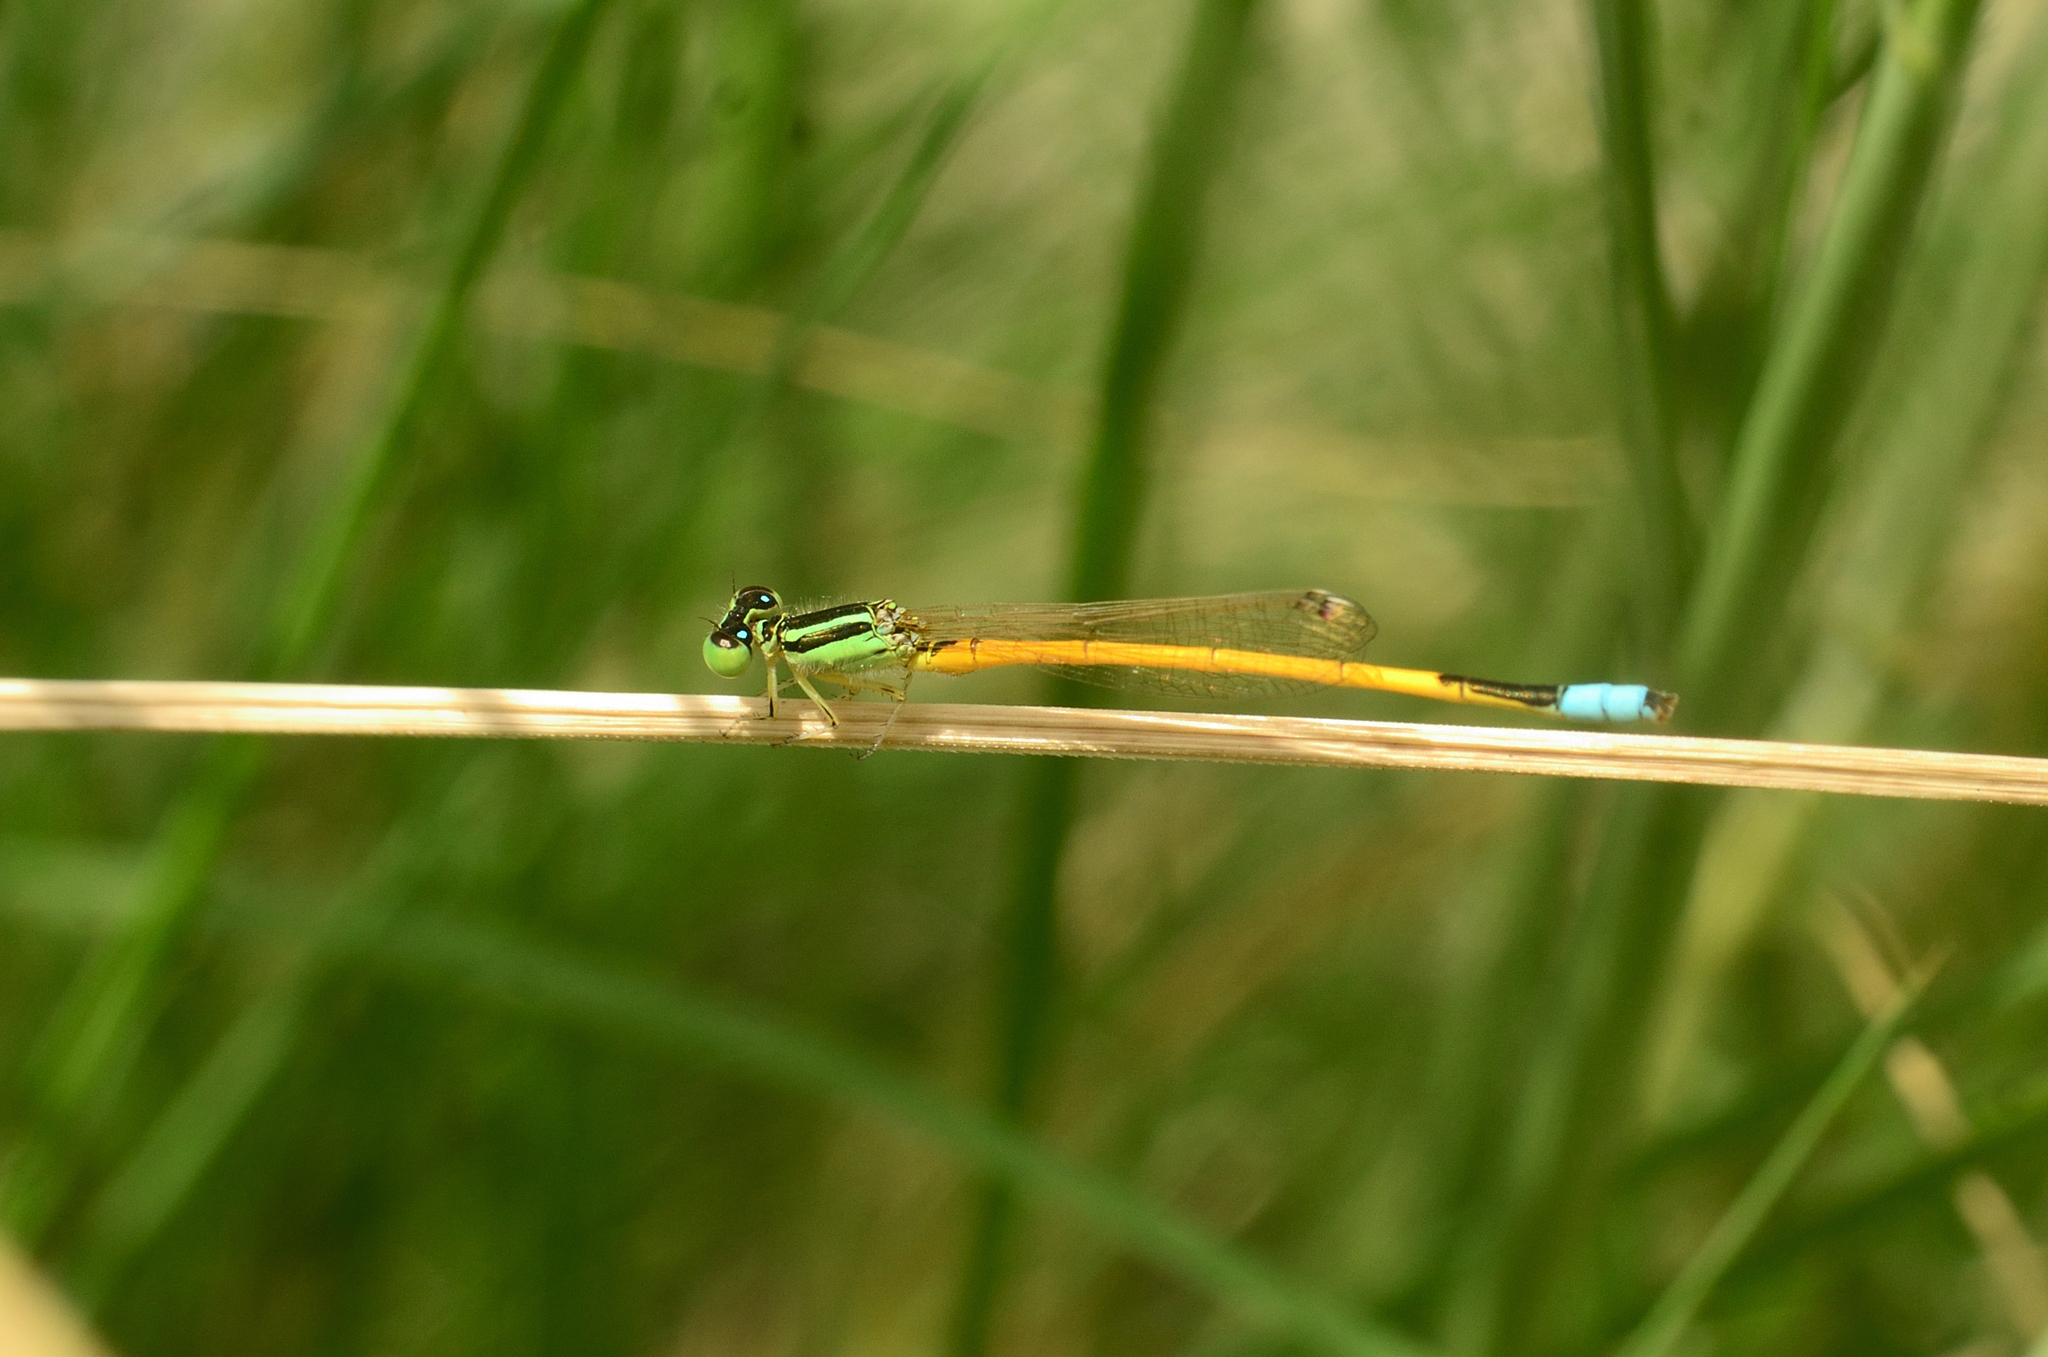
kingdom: Animalia
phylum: Arthropoda
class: Insecta
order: Odonata
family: Coenagrionidae
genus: Ischnura
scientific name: Ischnura rubilio
